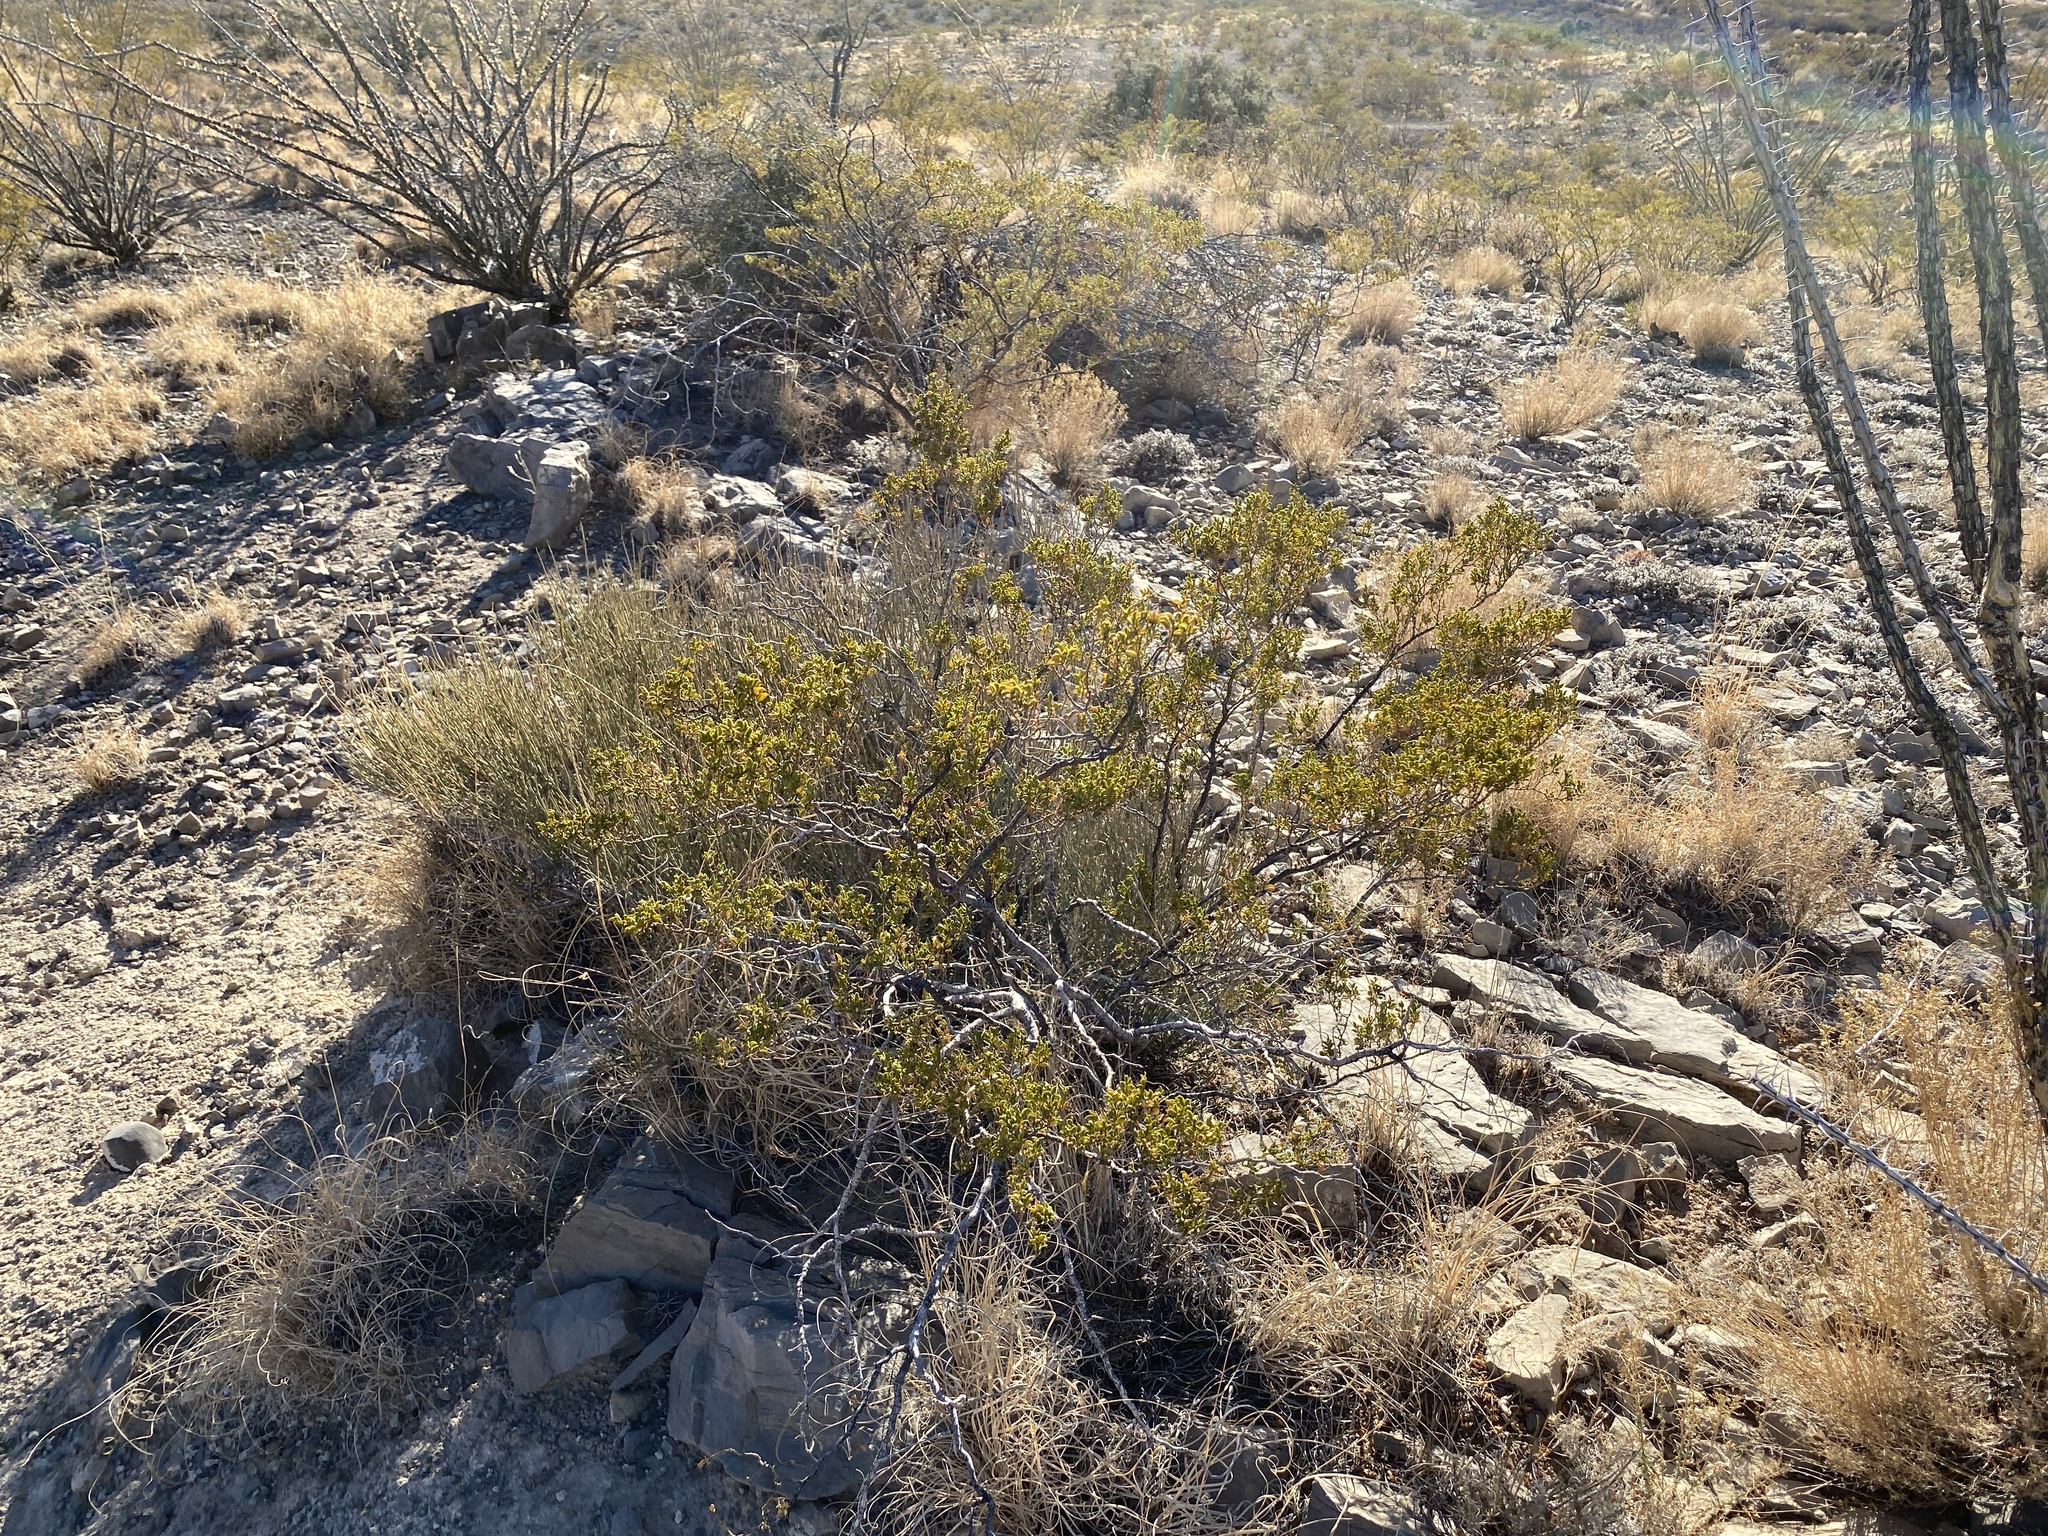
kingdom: Plantae
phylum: Tracheophyta
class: Magnoliopsida
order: Zygophyllales
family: Zygophyllaceae
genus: Larrea
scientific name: Larrea tridentata
